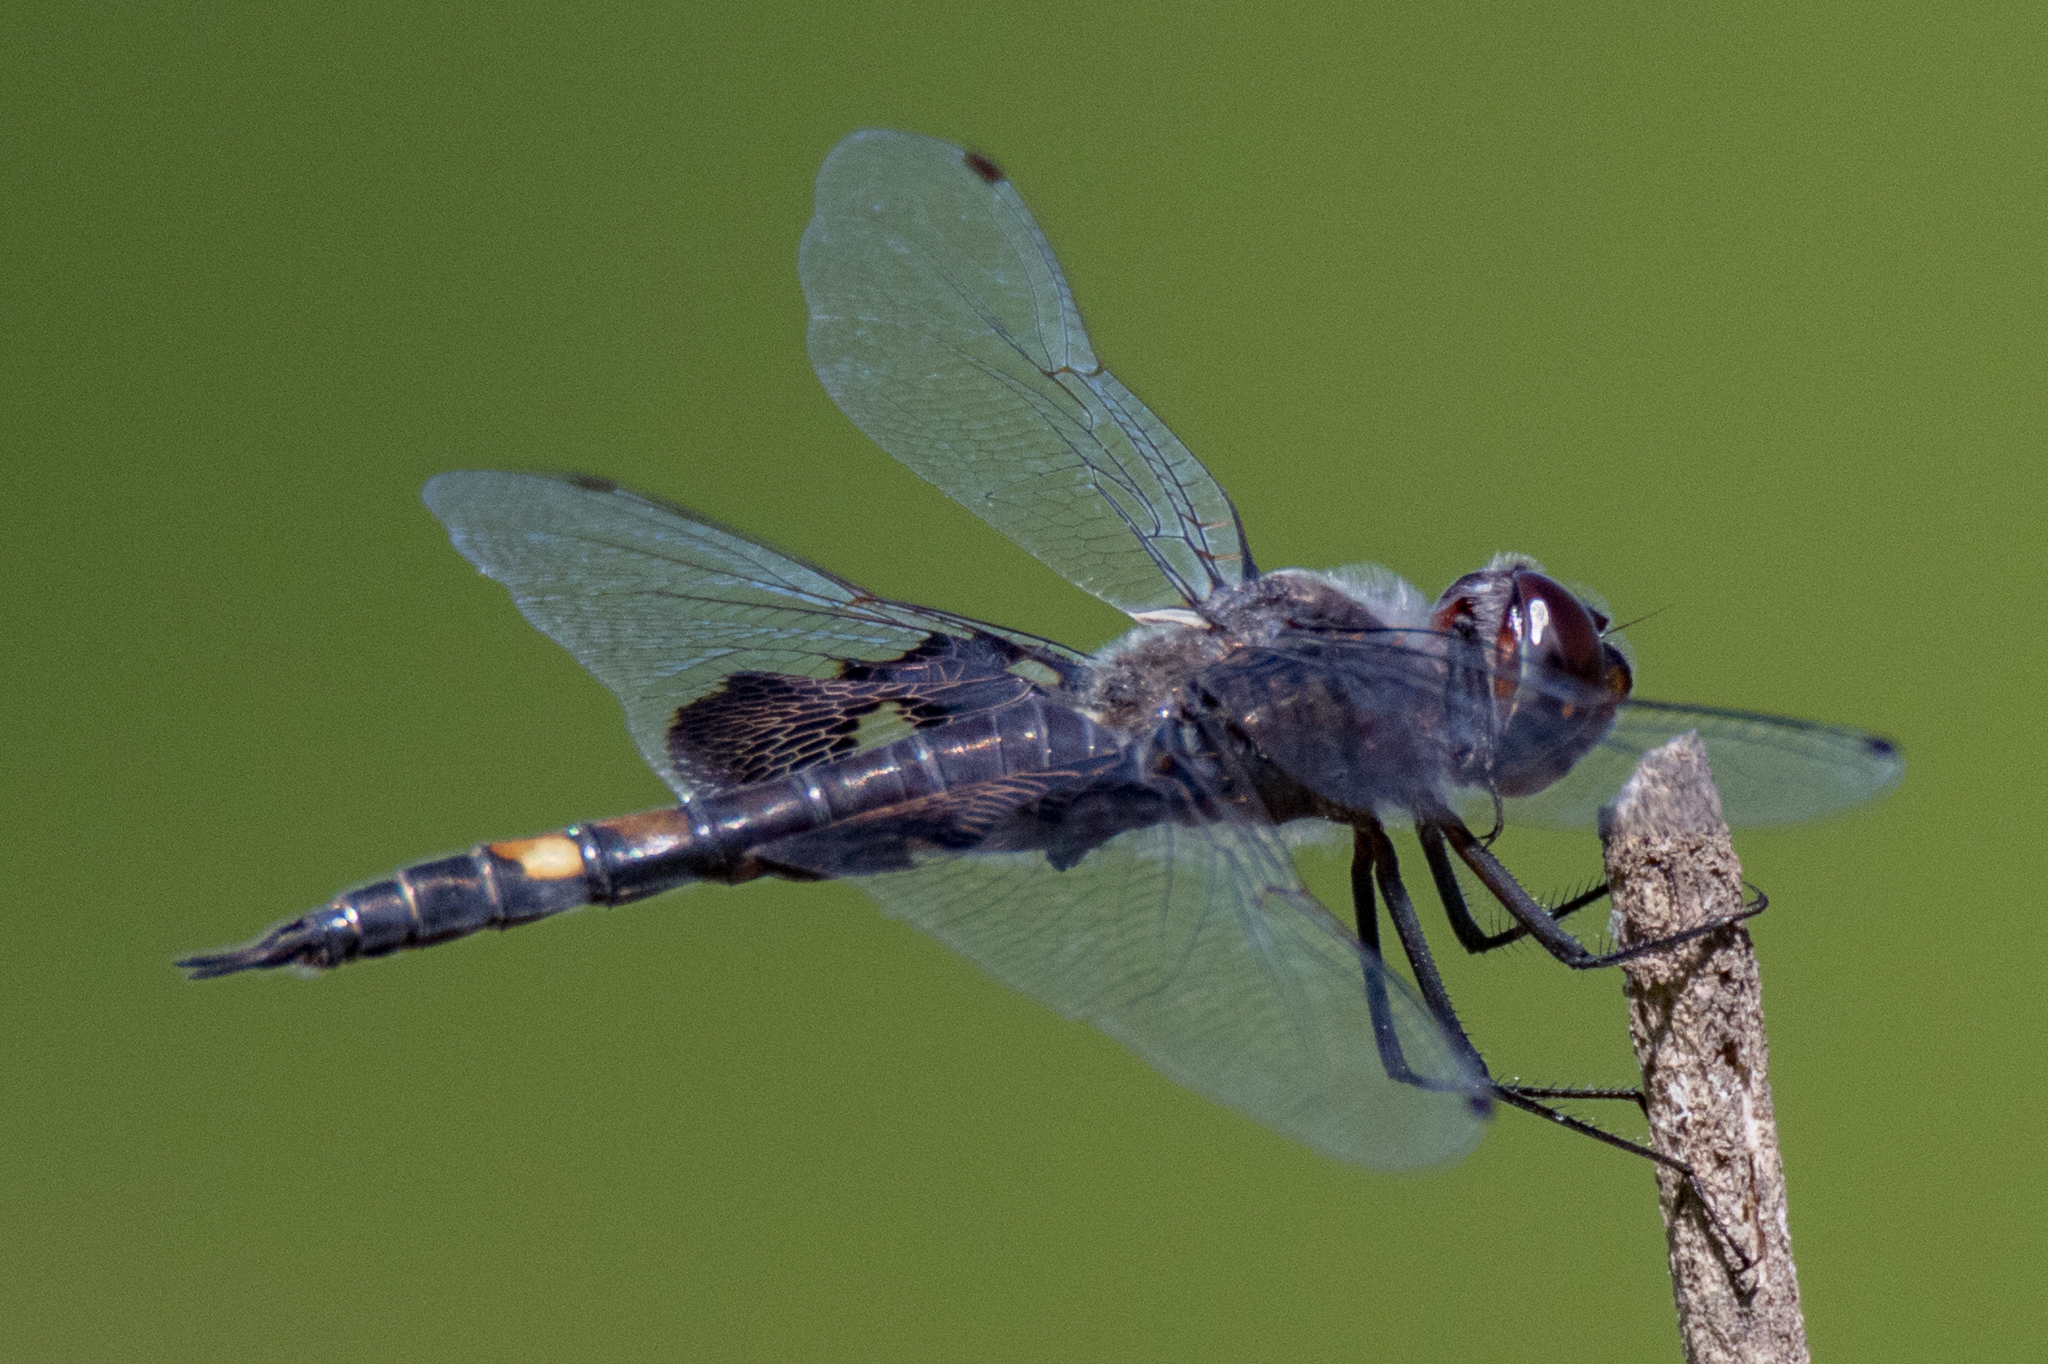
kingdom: Animalia
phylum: Arthropoda
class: Insecta
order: Odonata
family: Libellulidae
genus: Tramea
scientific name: Tramea lacerata
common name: Black saddlebags
